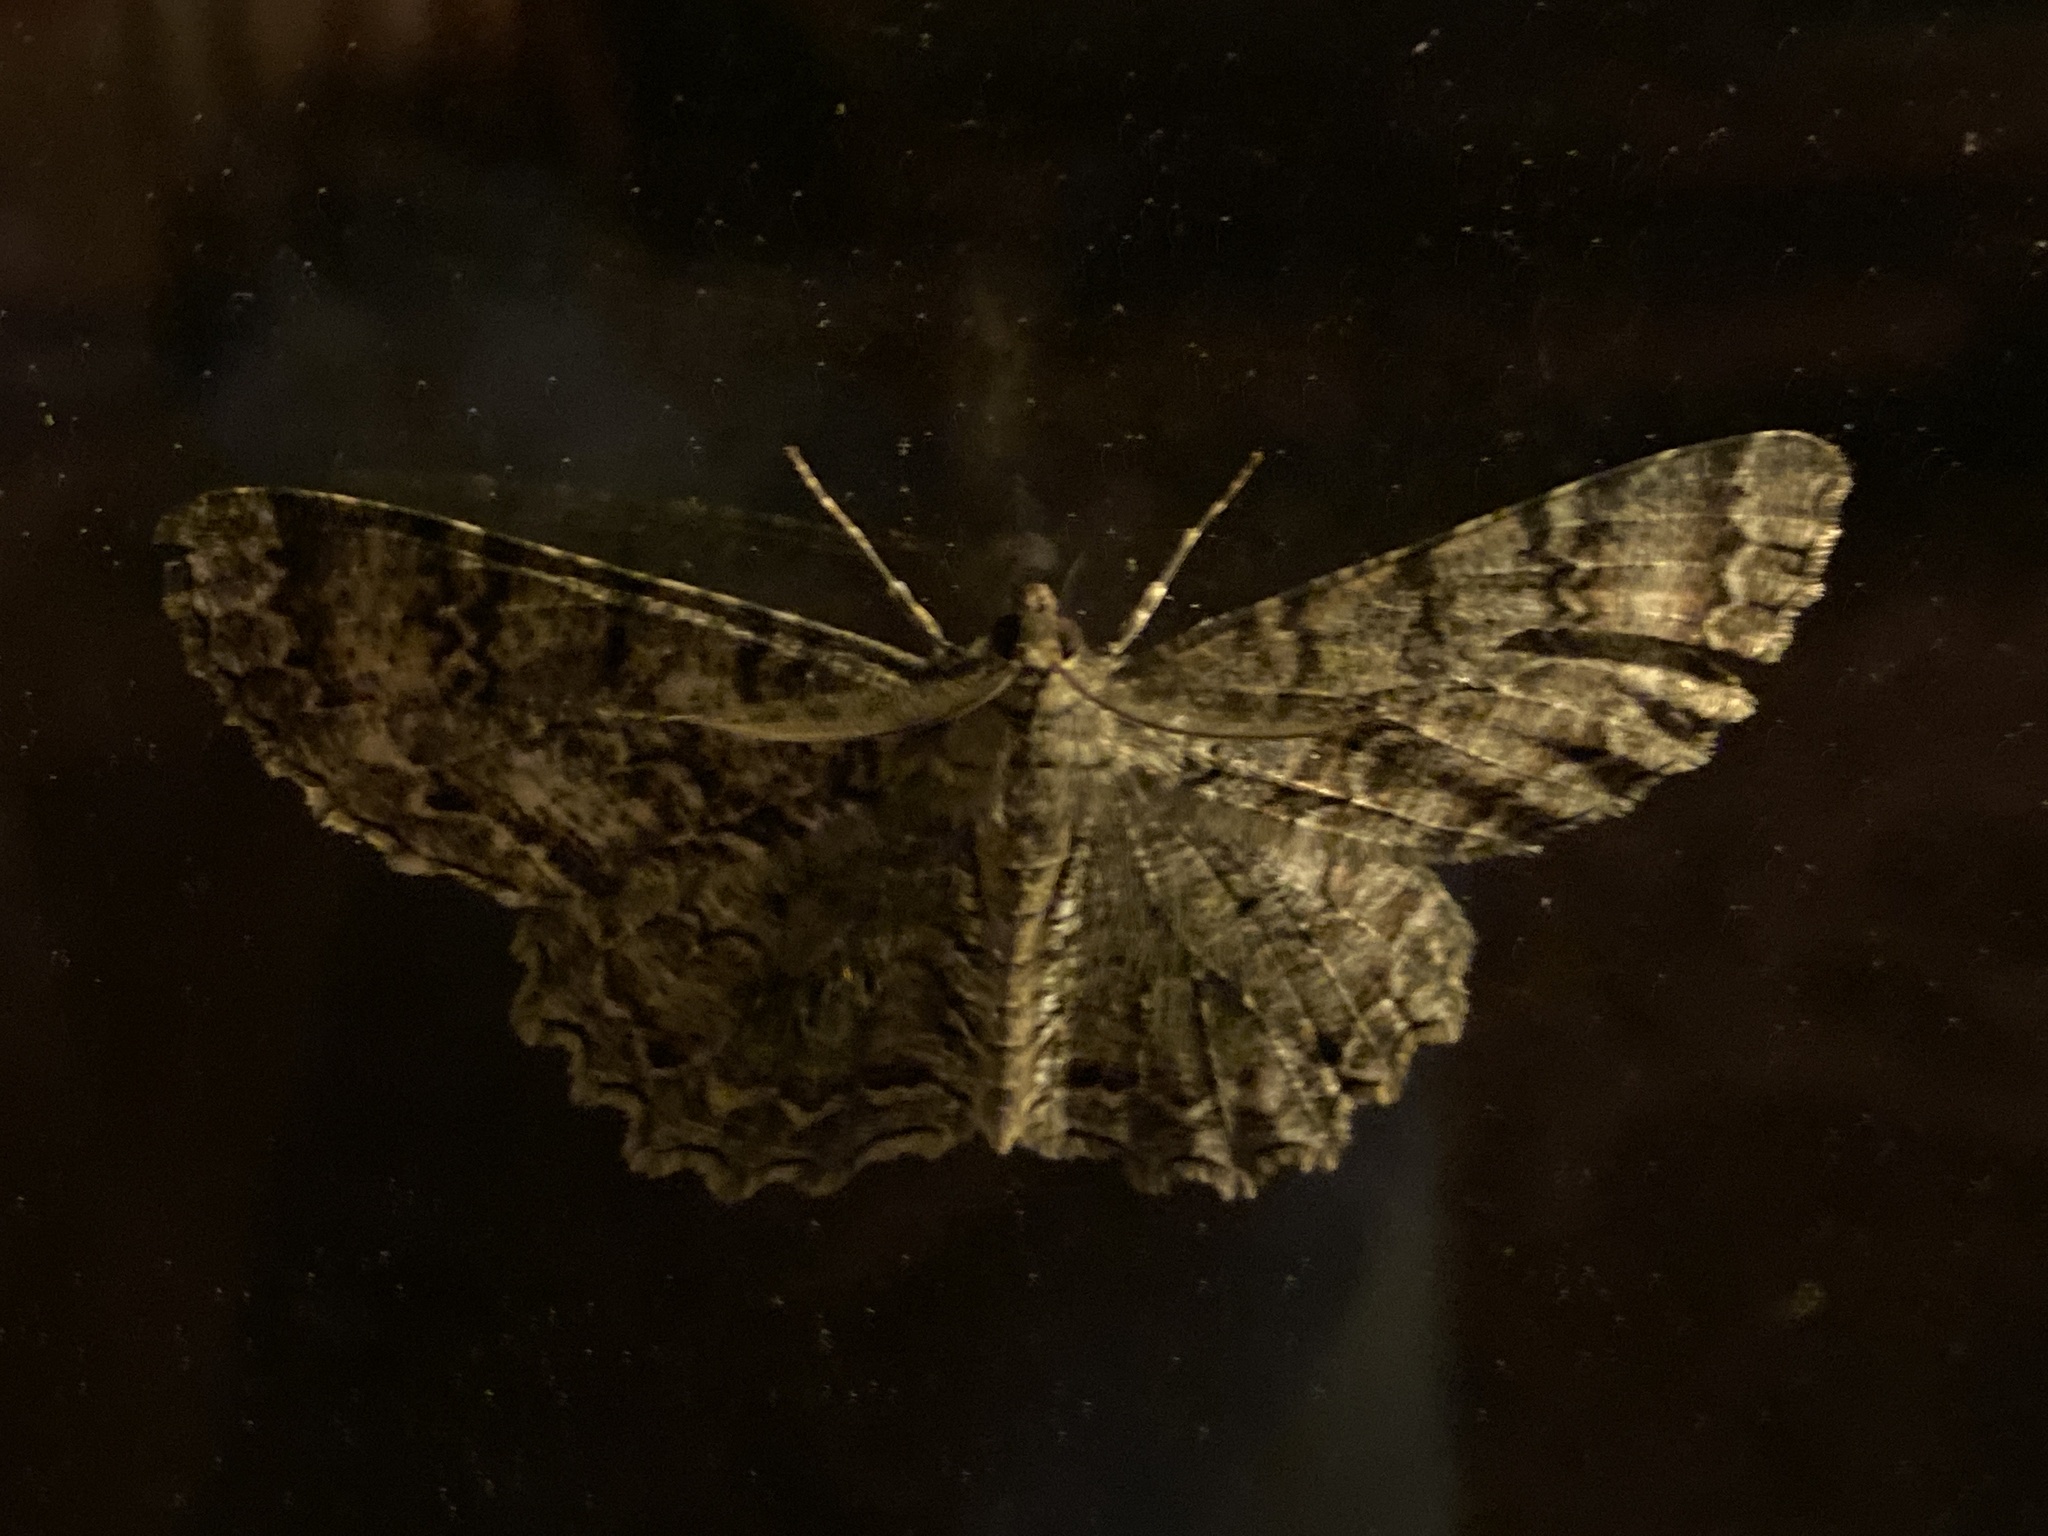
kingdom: Animalia
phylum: Arthropoda
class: Insecta
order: Lepidoptera
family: Geometridae
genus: Epimecis
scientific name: Epimecis hortaria
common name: Tulip-tree beauty
